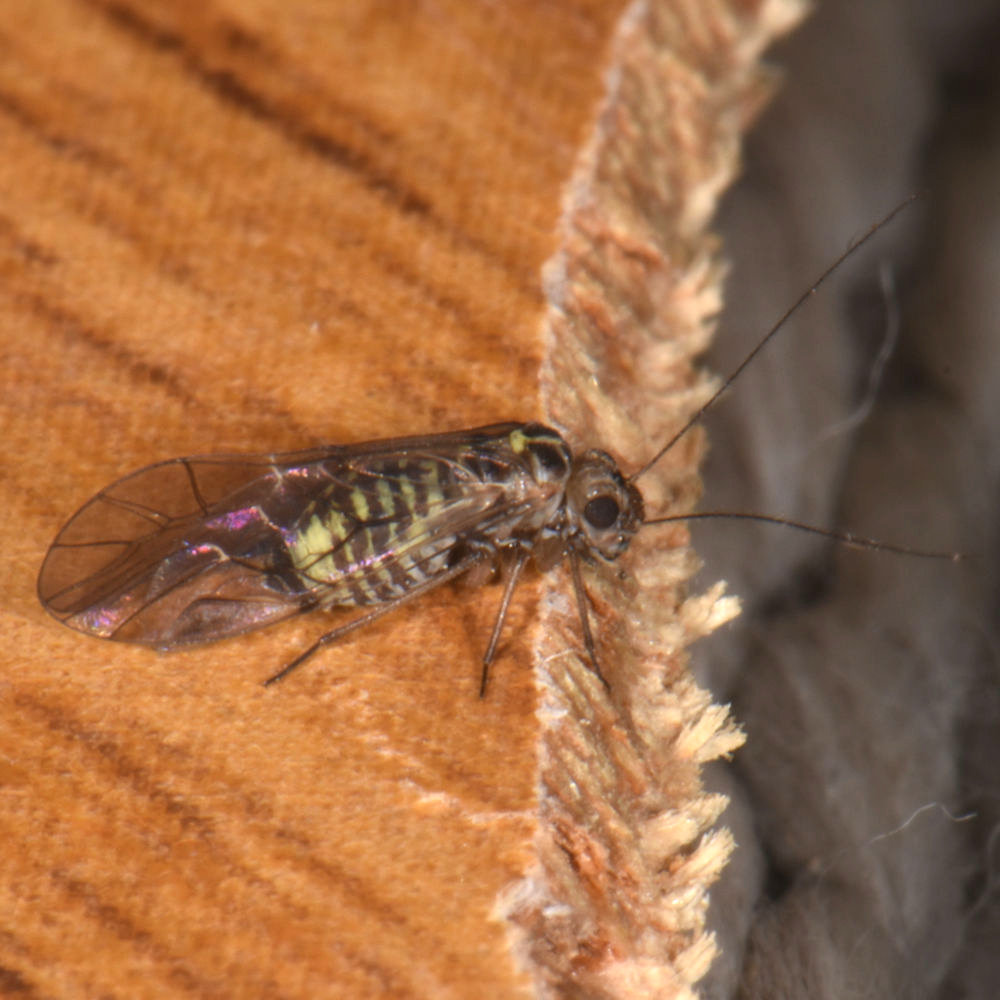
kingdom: Animalia
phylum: Arthropoda
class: Insecta
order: Psocodea
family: Psocidae
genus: Blastopsocus
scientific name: Blastopsocus lithinus
